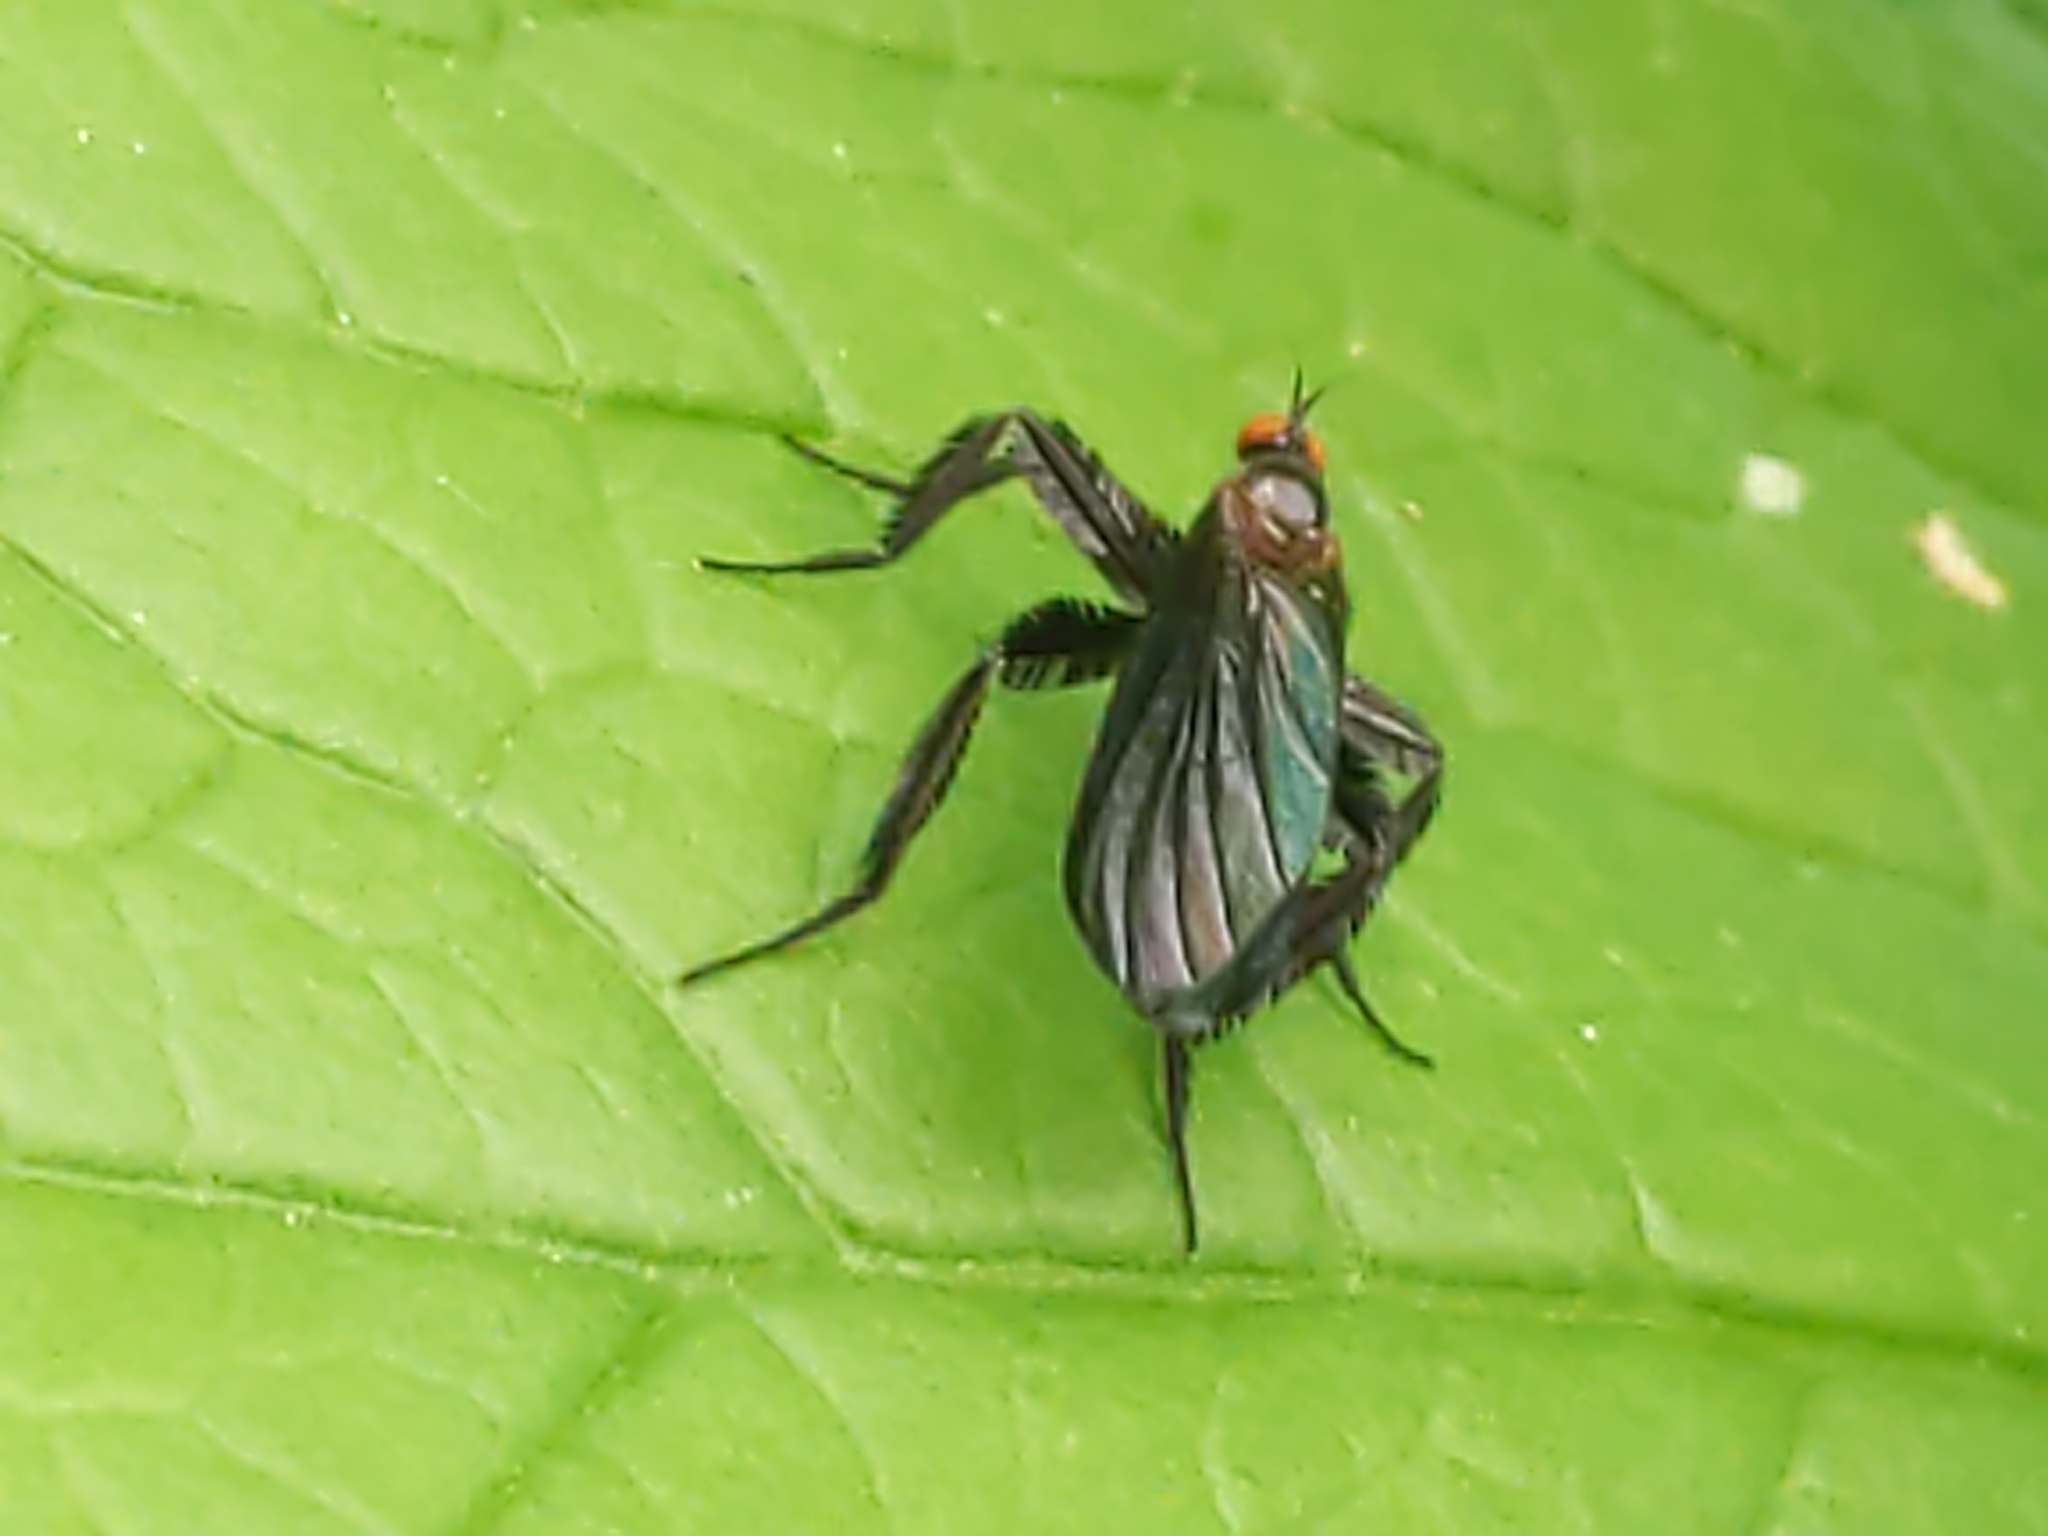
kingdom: Animalia
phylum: Arthropoda
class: Insecta
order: Diptera
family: Empididae
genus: Rhamphomyia
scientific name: Rhamphomyia longicauda
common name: Long-tailed dance fly
